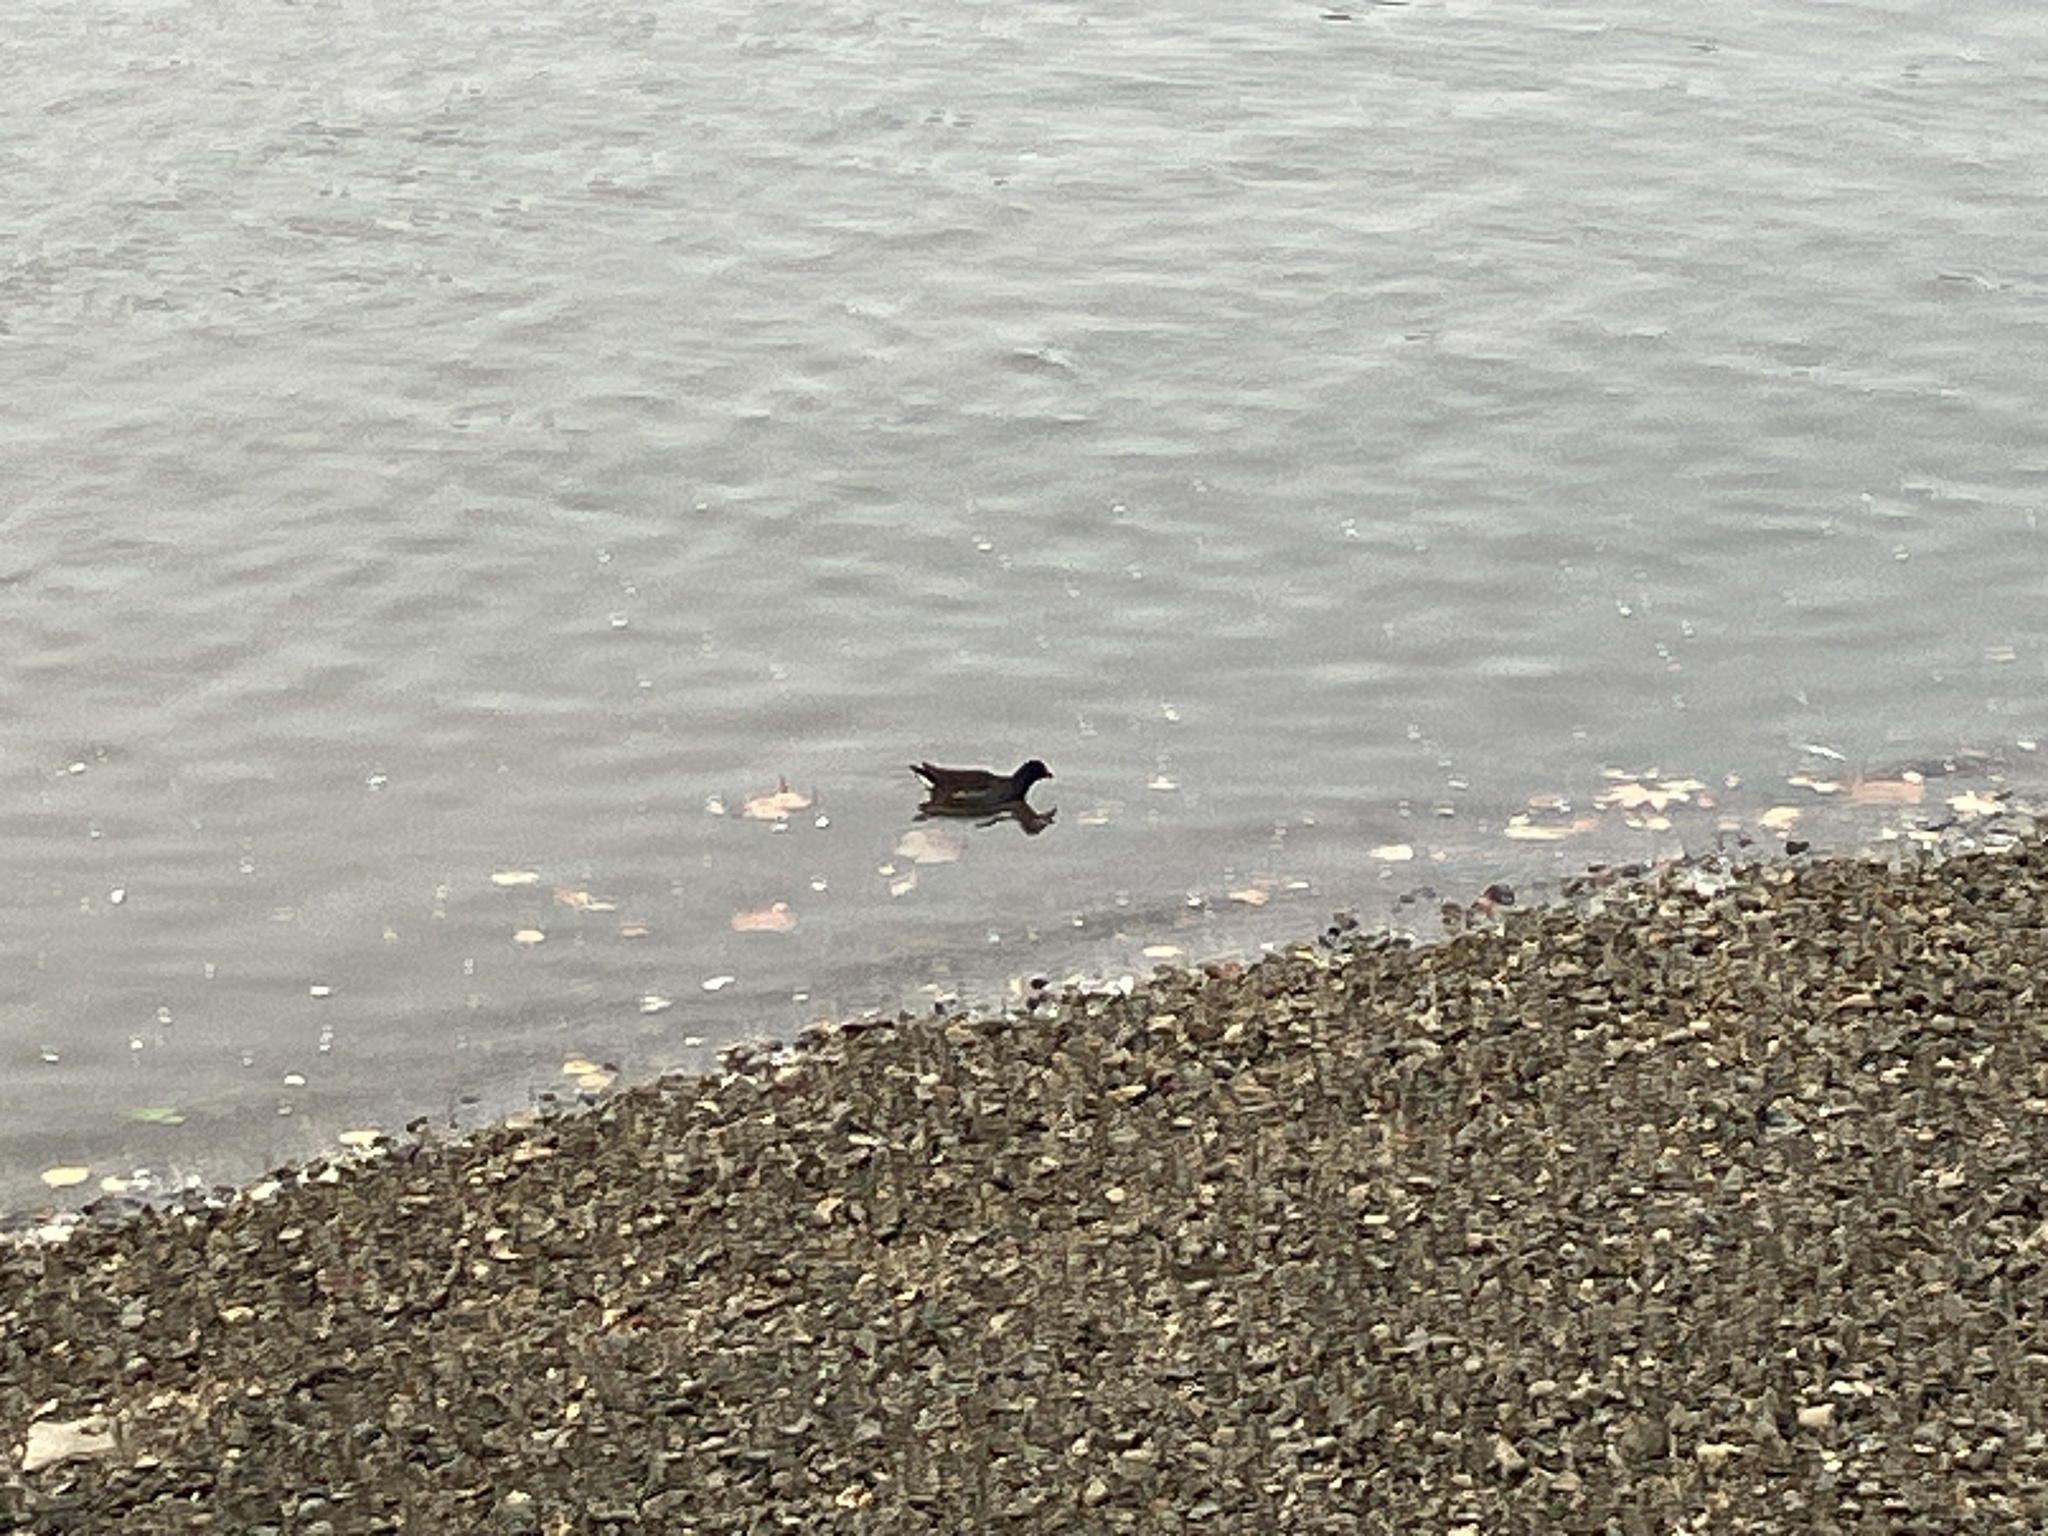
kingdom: Animalia
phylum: Chordata
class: Aves
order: Gruiformes
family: Rallidae
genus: Gallinula
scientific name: Gallinula chloropus
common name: Common moorhen
